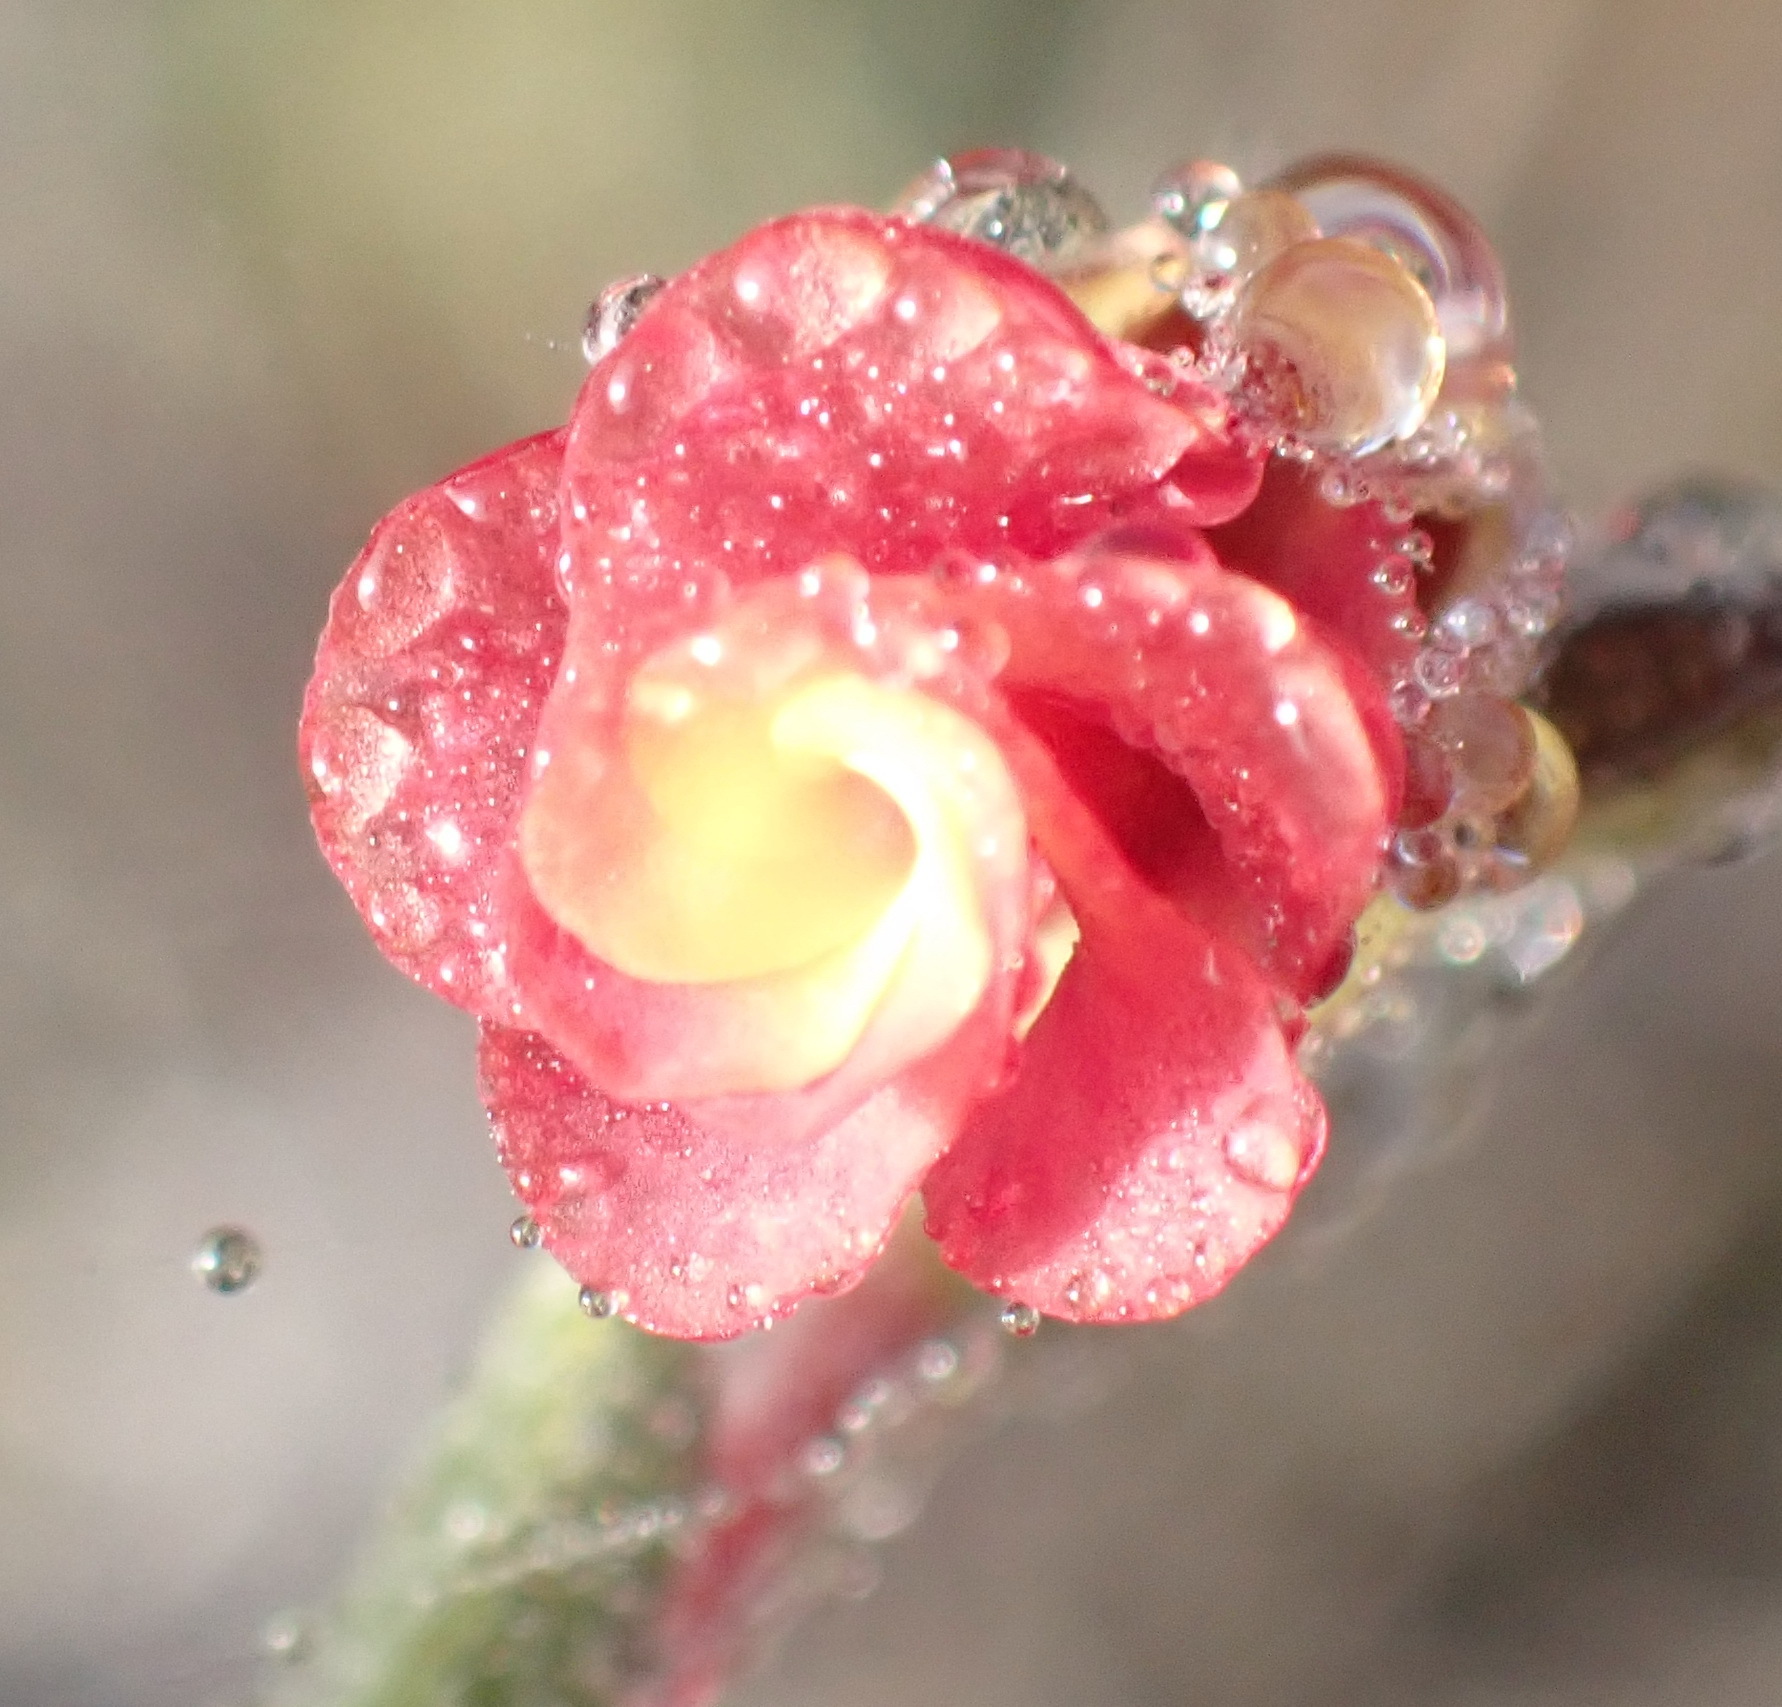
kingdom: Plantae
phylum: Tracheophyta
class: Magnoliopsida
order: Malvales
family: Malvaceae
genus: Hermannia
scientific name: Hermannia flammula
